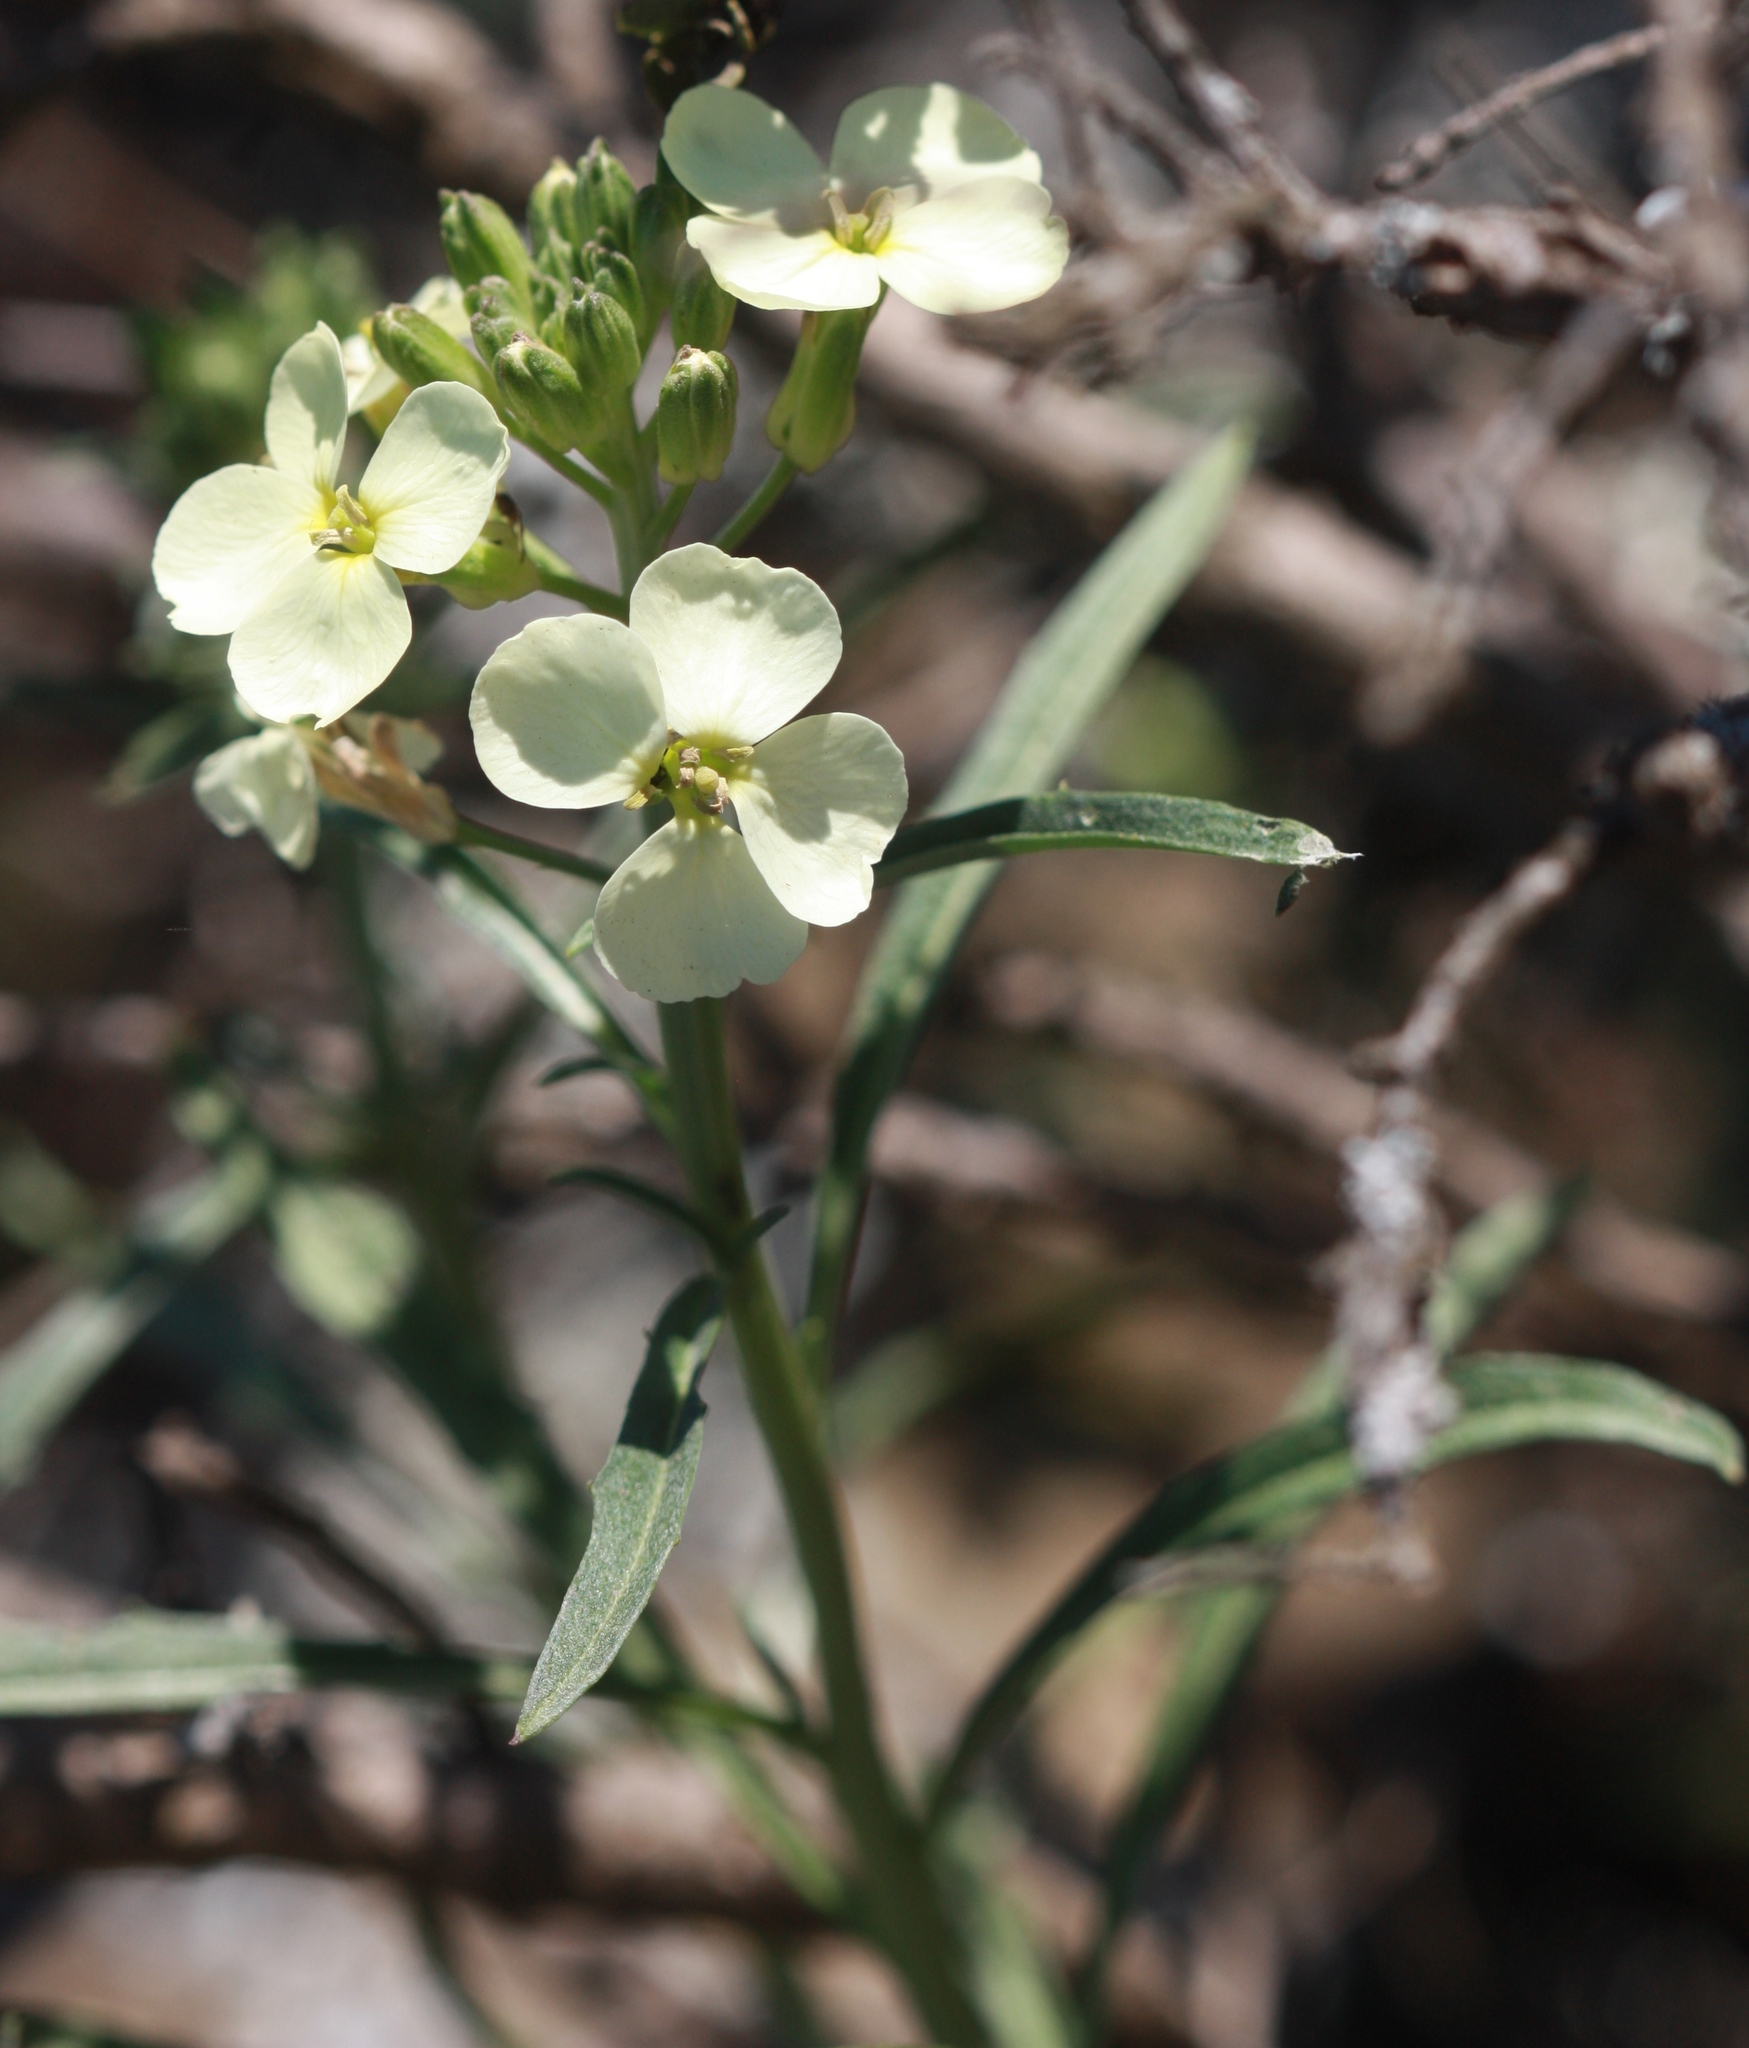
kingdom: Plantae
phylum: Tracheophyta
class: Magnoliopsida
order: Brassicales
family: Brassicaceae
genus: Erysimum
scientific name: Erysimum franciscanum
